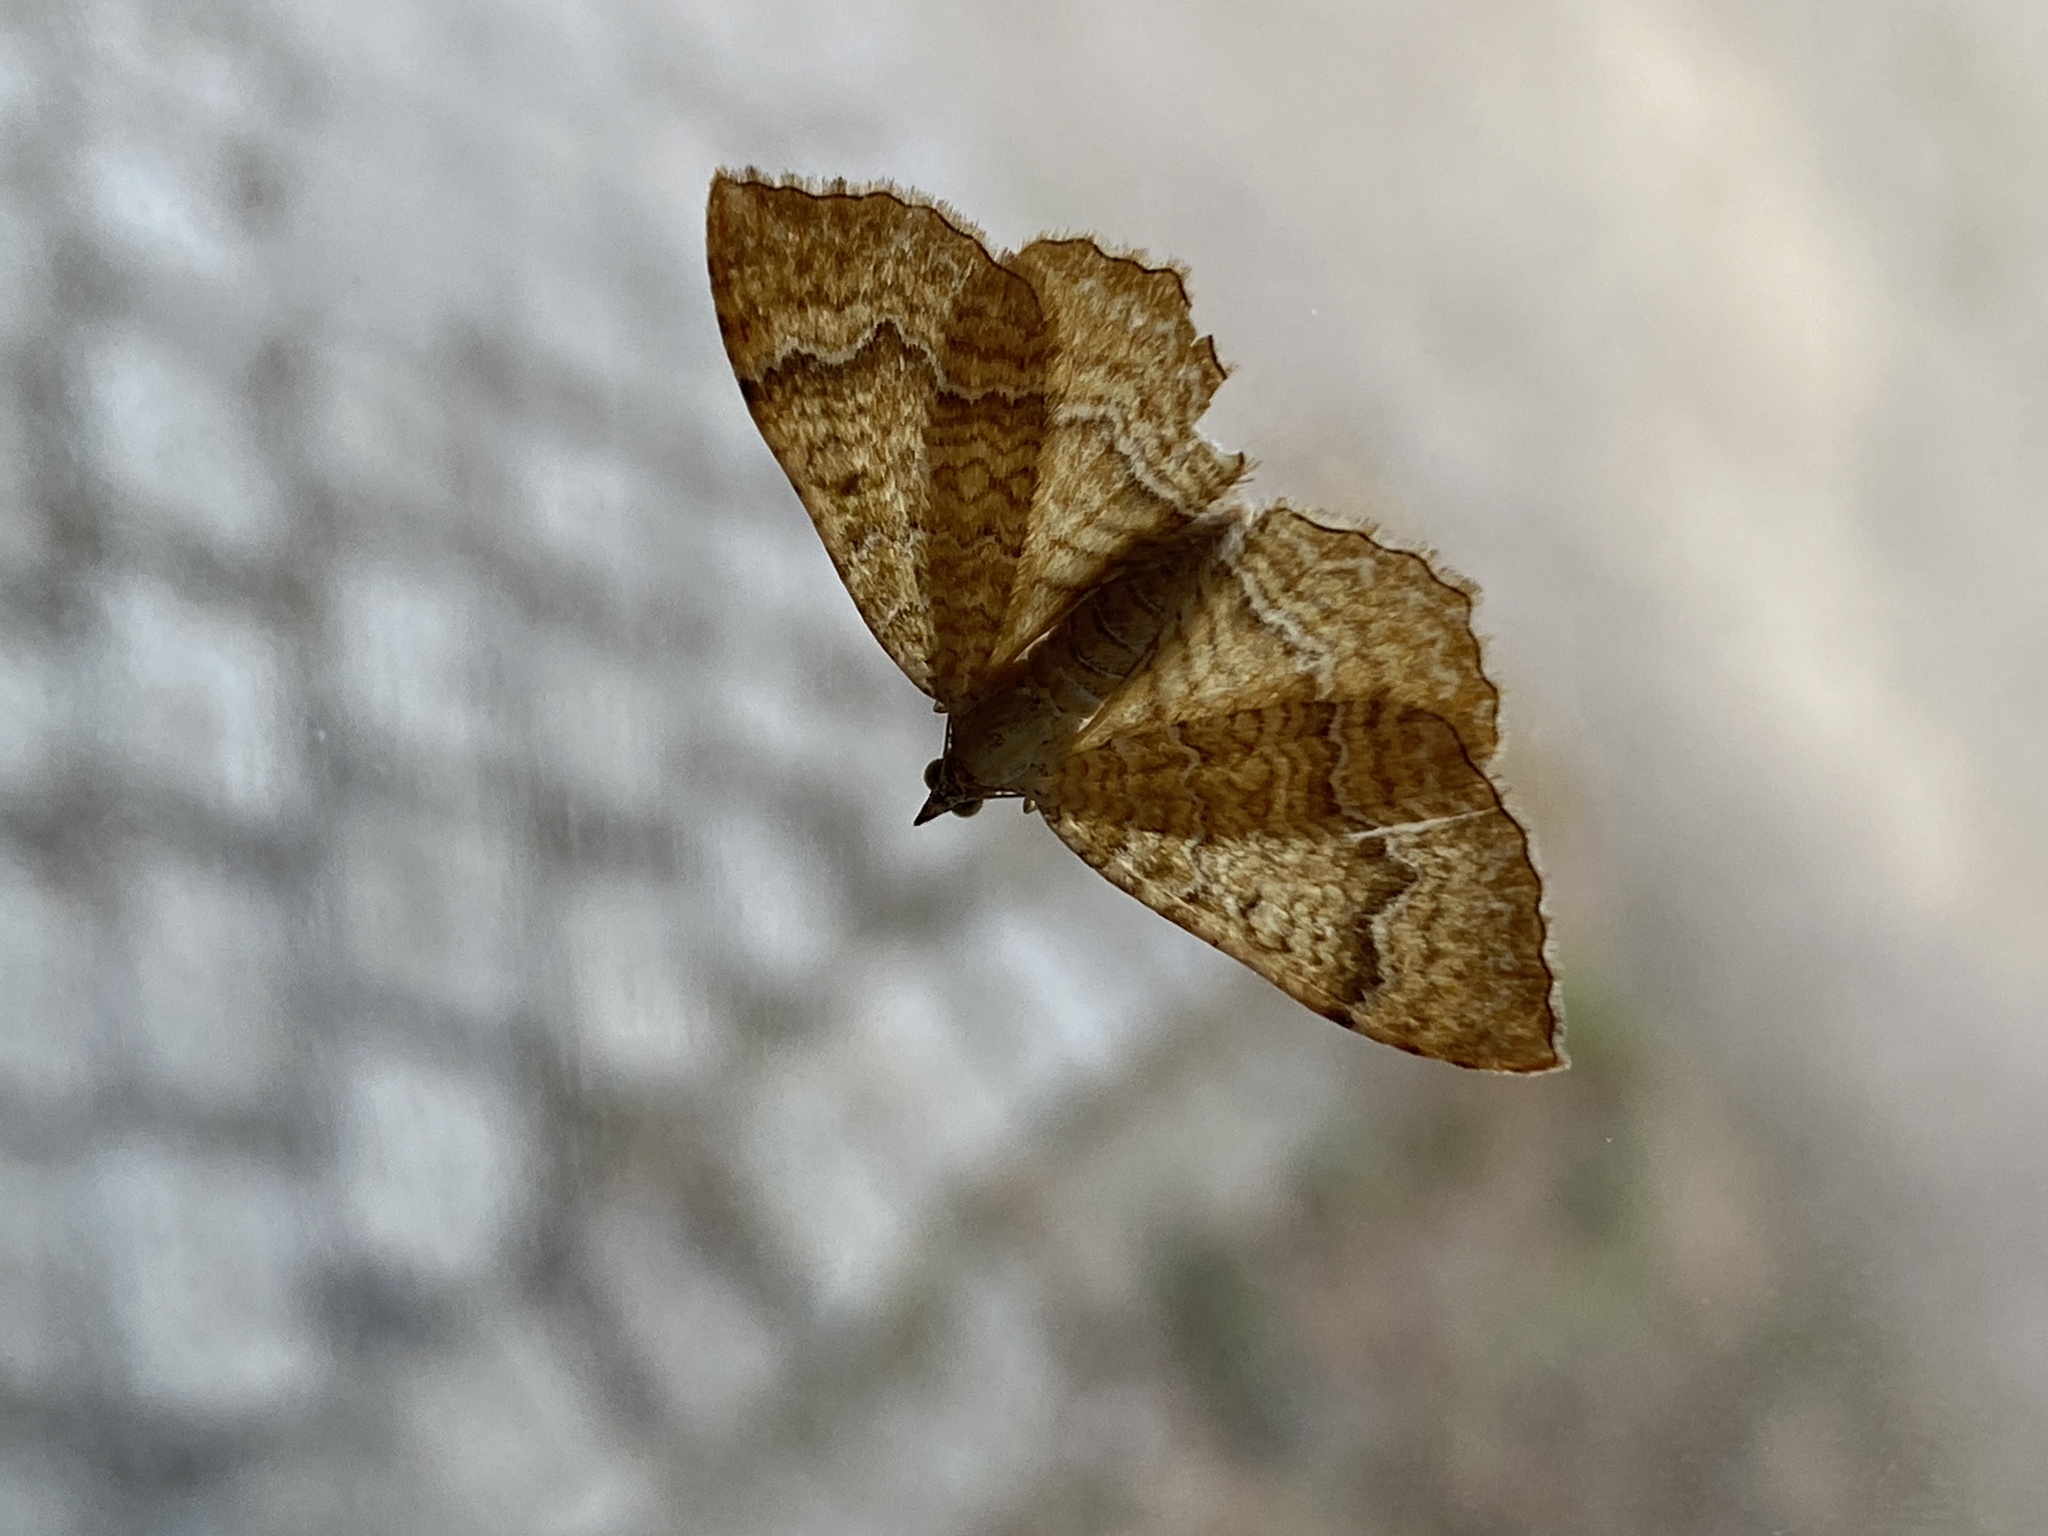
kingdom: Animalia
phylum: Arthropoda
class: Insecta
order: Lepidoptera
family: Geometridae
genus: Camptogramma
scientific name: Camptogramma bilineata
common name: Yellow shell
